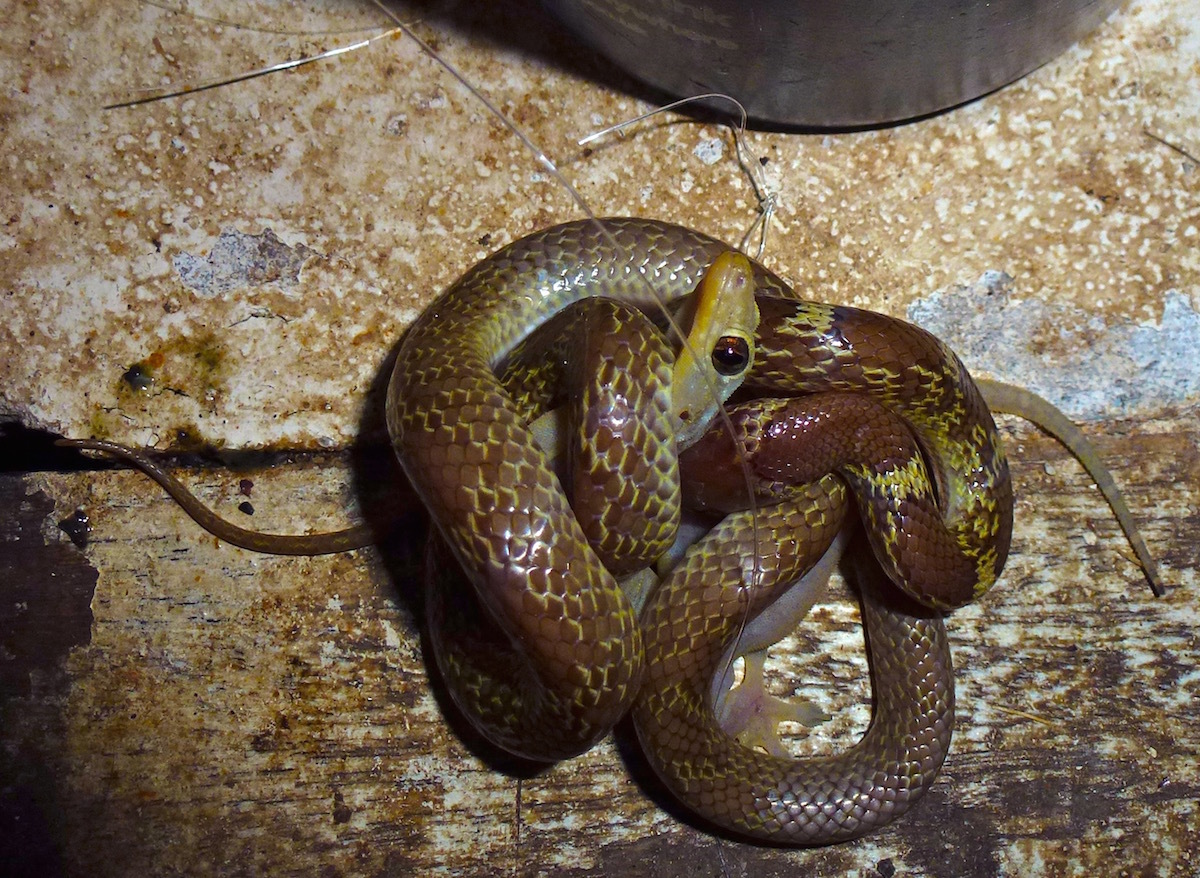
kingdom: Animalia
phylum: Chordata
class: Squamata
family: Gekkonidae
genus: Gehyra
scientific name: Gehyra mutilata
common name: Stump-toed gecko
